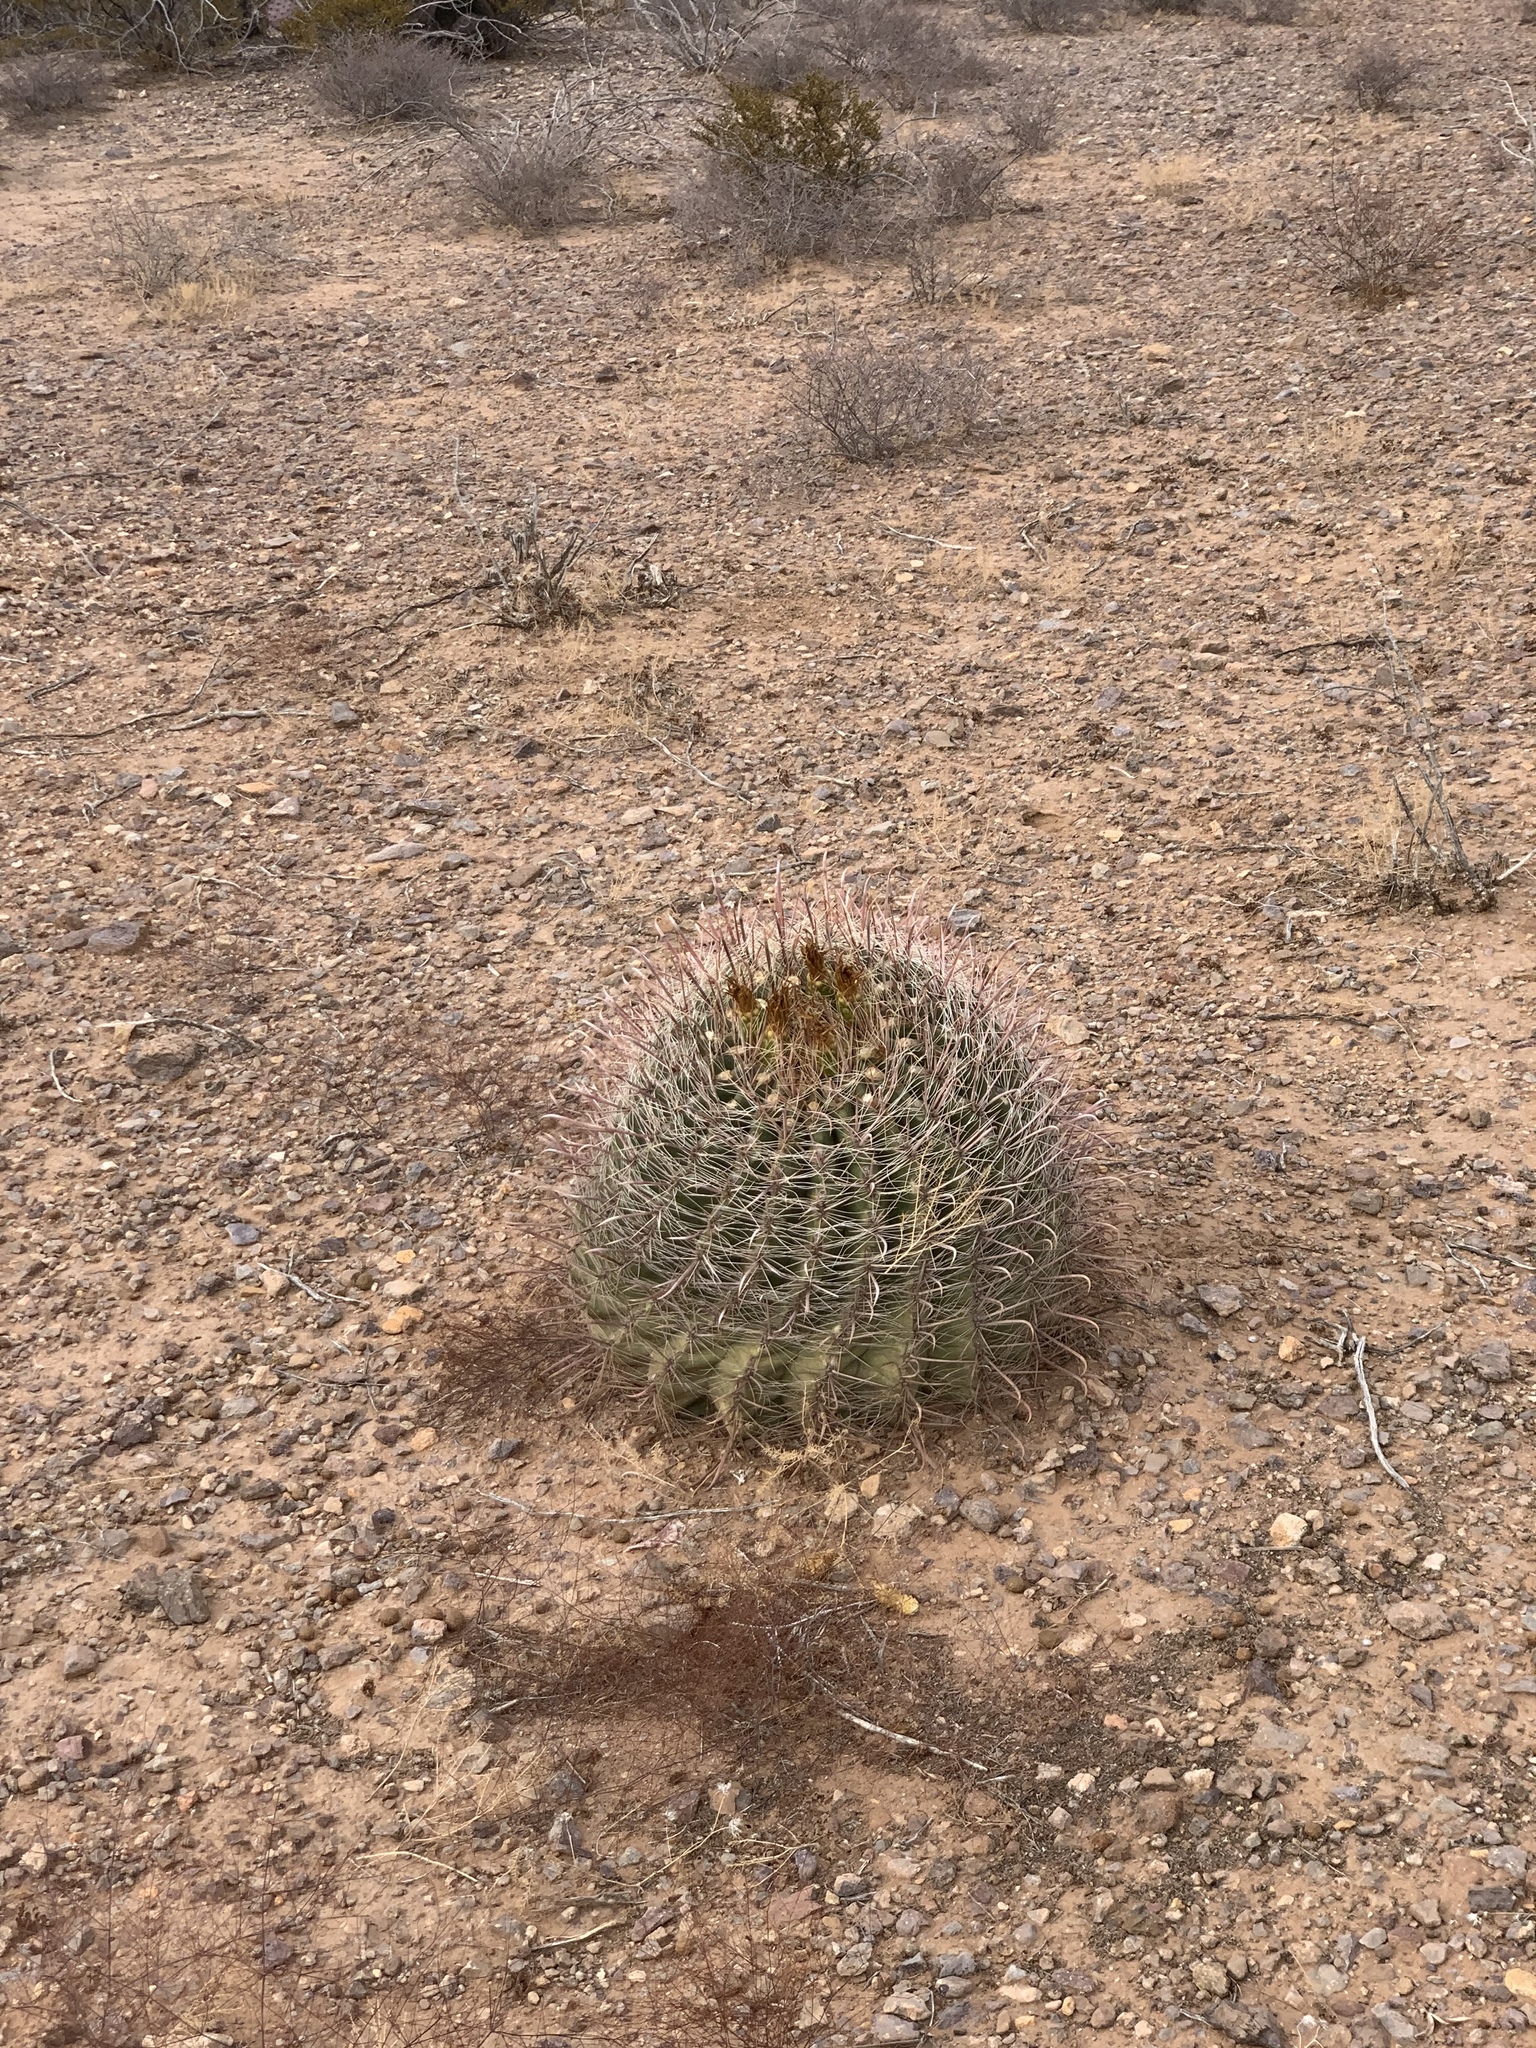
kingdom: Plantae
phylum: Tracheophyta
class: Magnoliopsida
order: Caryophyllales
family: Cactaceae
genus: Ferocactus
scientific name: Ferocactus wislizeni
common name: Candy barrel cactus
